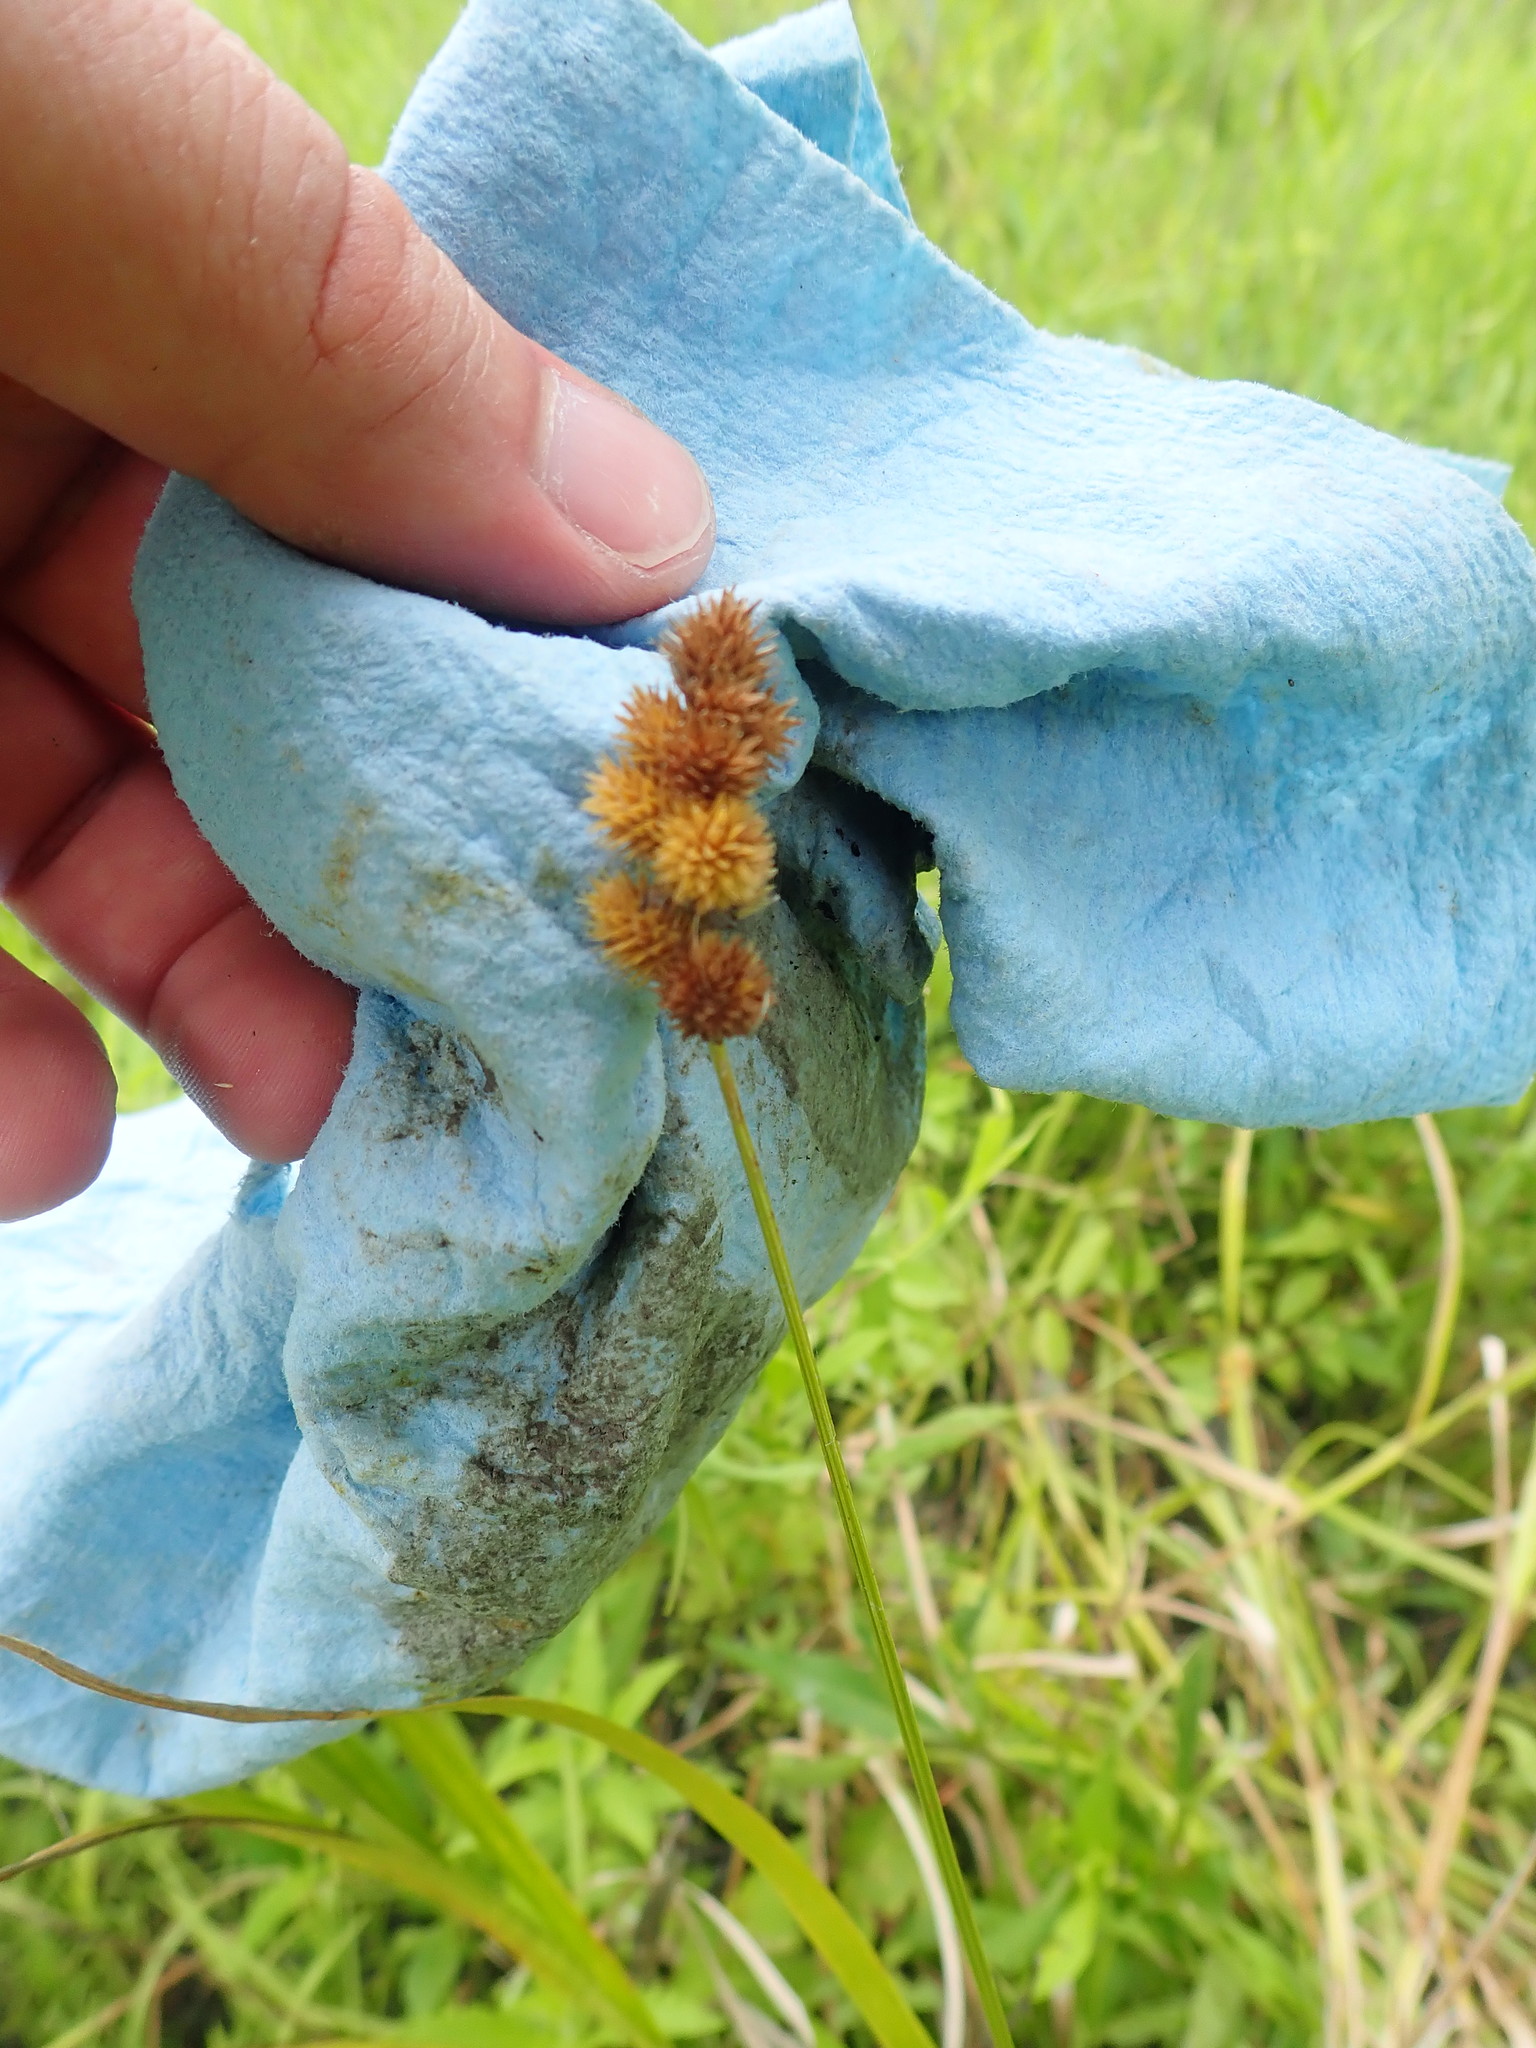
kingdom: Plantae
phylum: Tracheophyta
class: Liliopsida
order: Poales
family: Cyperaceae
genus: Carex
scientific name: Carex cristatella
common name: Crested oval sedge
